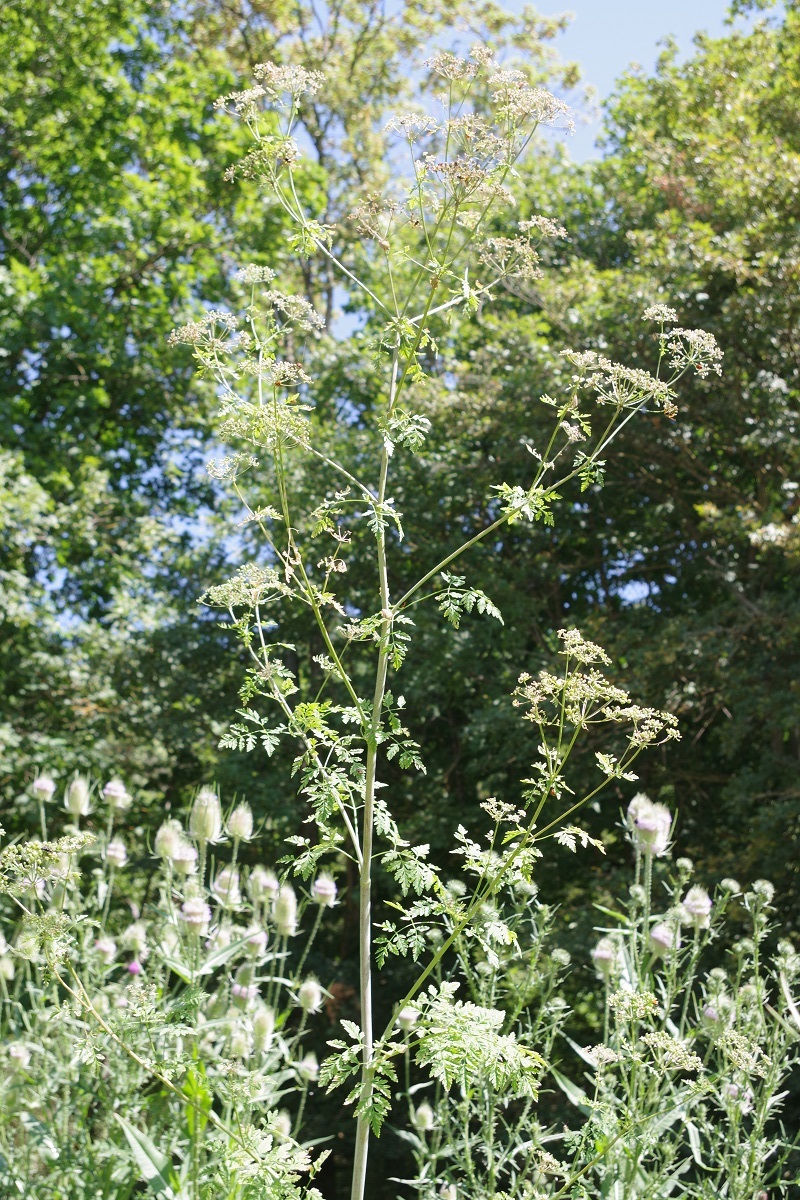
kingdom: Plantae
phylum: Tracheophyta
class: Magnoliopsida
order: Apiales
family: Apiaceae
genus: Conium
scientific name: Conium maculatum
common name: Hemlock
